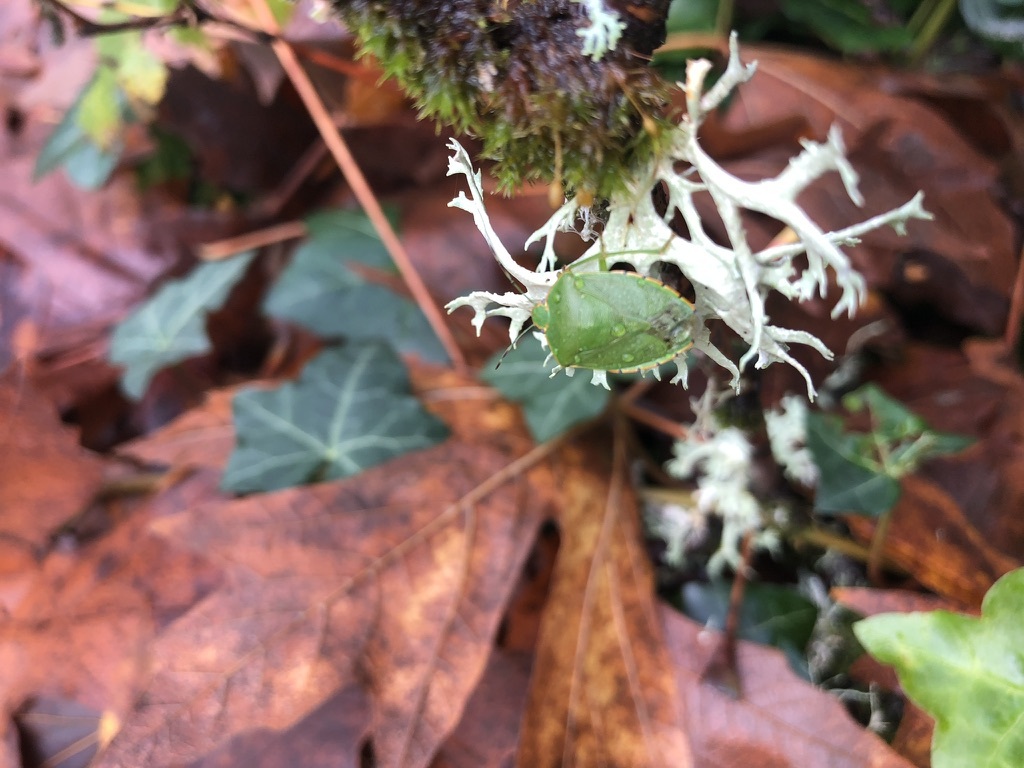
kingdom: Animalia
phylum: Arthropoda
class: Insecta
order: Hemiptera
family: Pentatomidae
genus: Chinavia
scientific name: Chinavia hilaris
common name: Green stink bug
